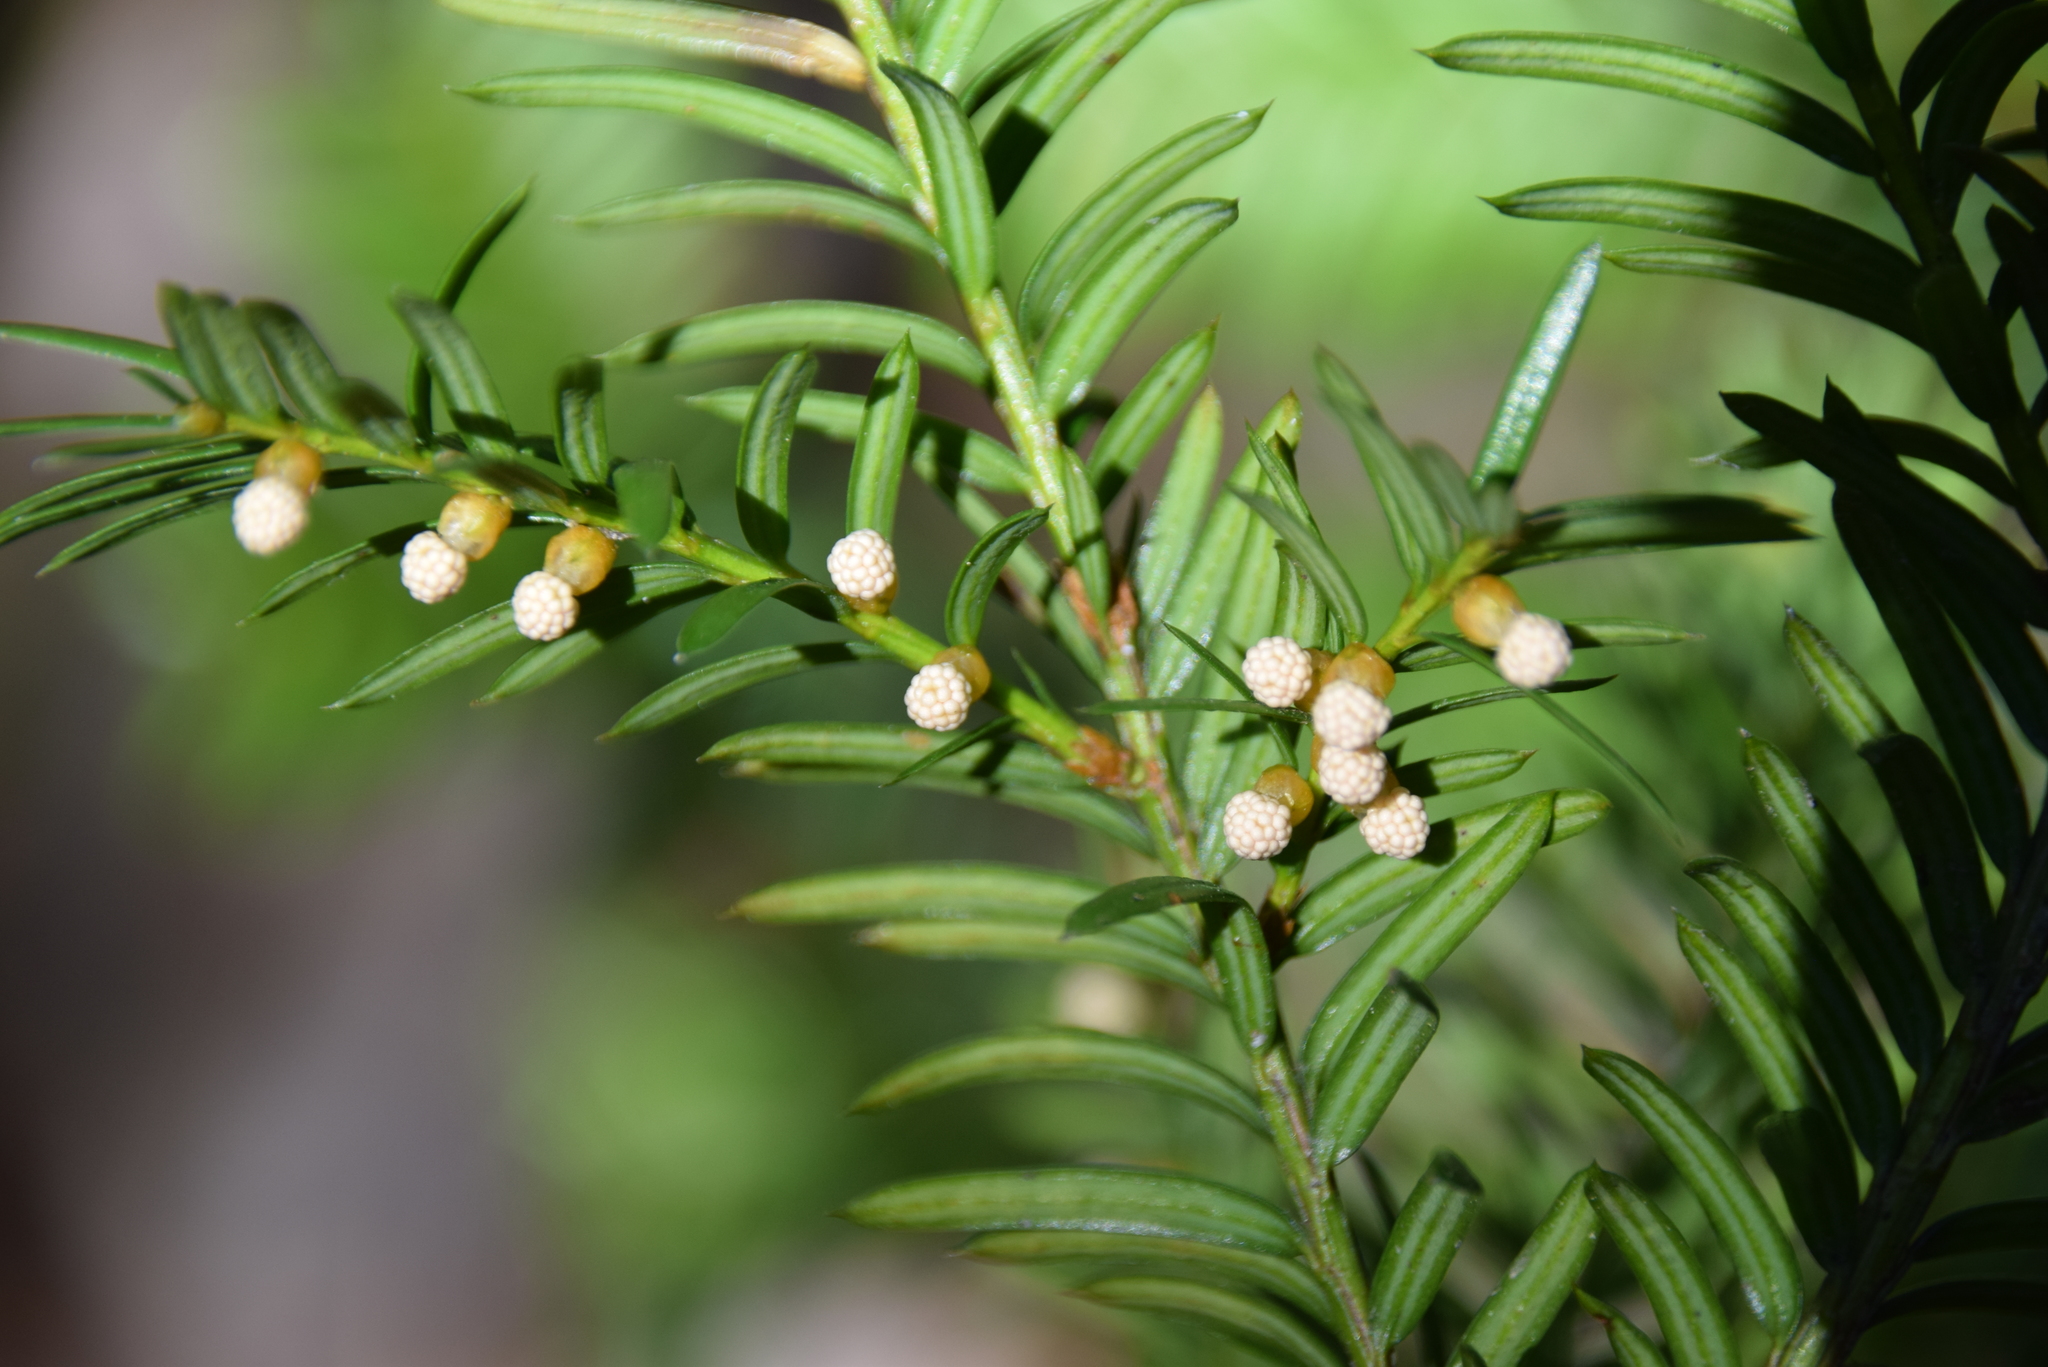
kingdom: Plantae
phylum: Tracheophyta
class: Pinopsida
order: Pinales
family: Taxaceae
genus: Taxus
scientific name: Taxus canadensis
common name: American yew
